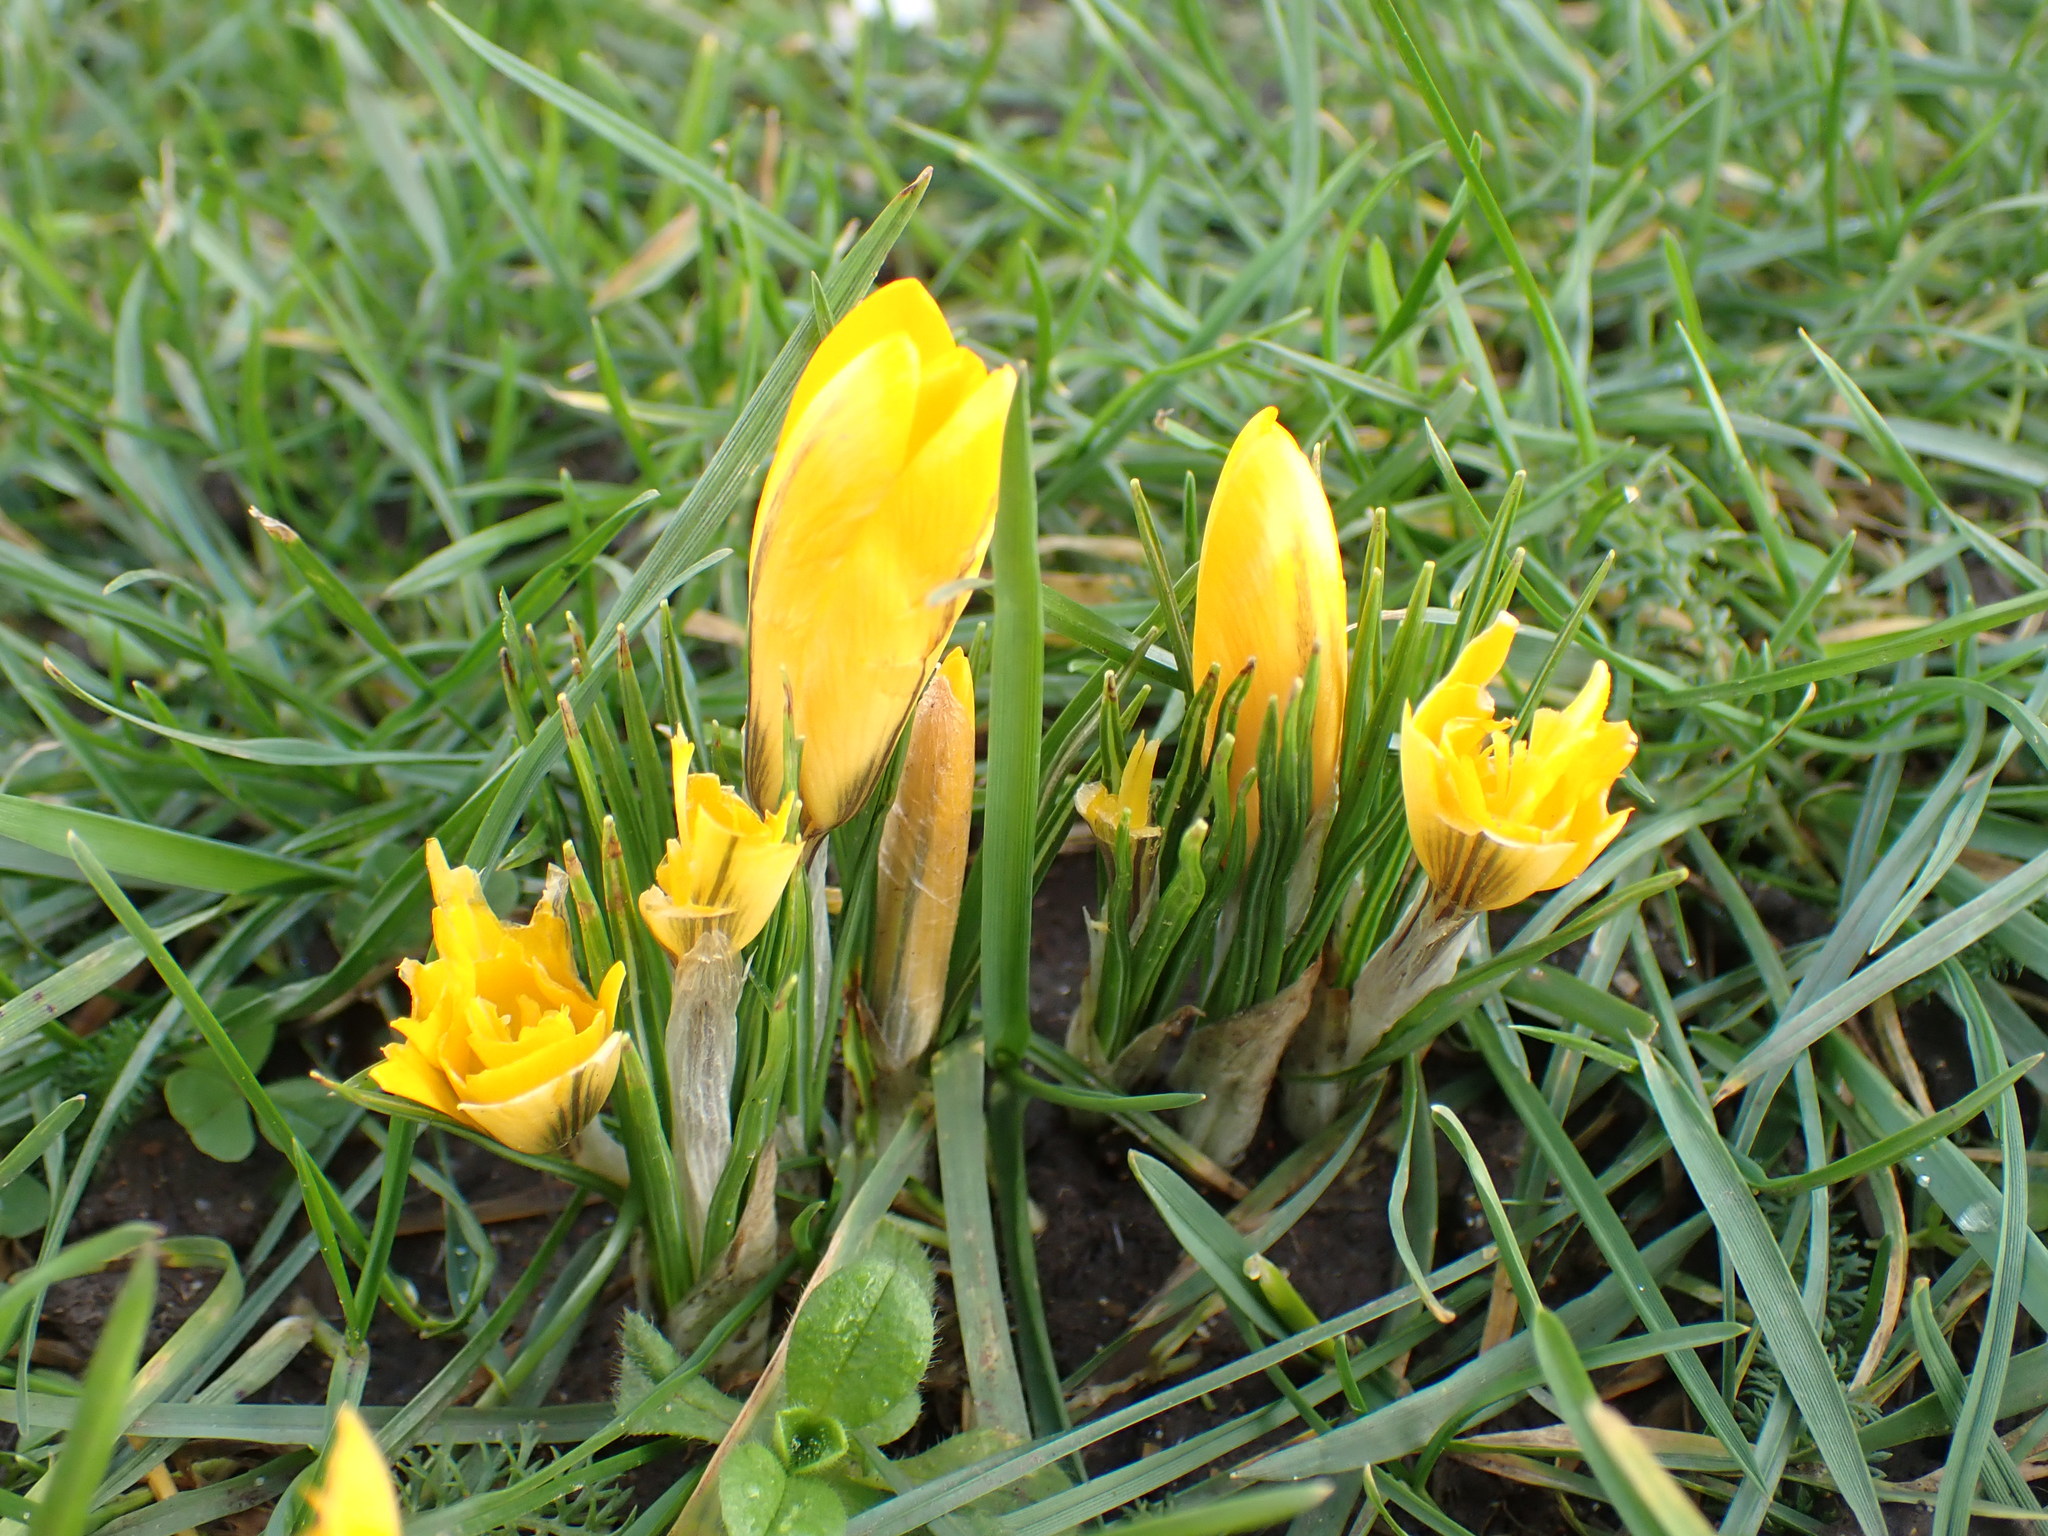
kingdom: Plantae
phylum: Tracheophyta
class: Liliopsida
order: Asparagales
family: Iridaceae
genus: Crocus
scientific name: Crocus luteus
